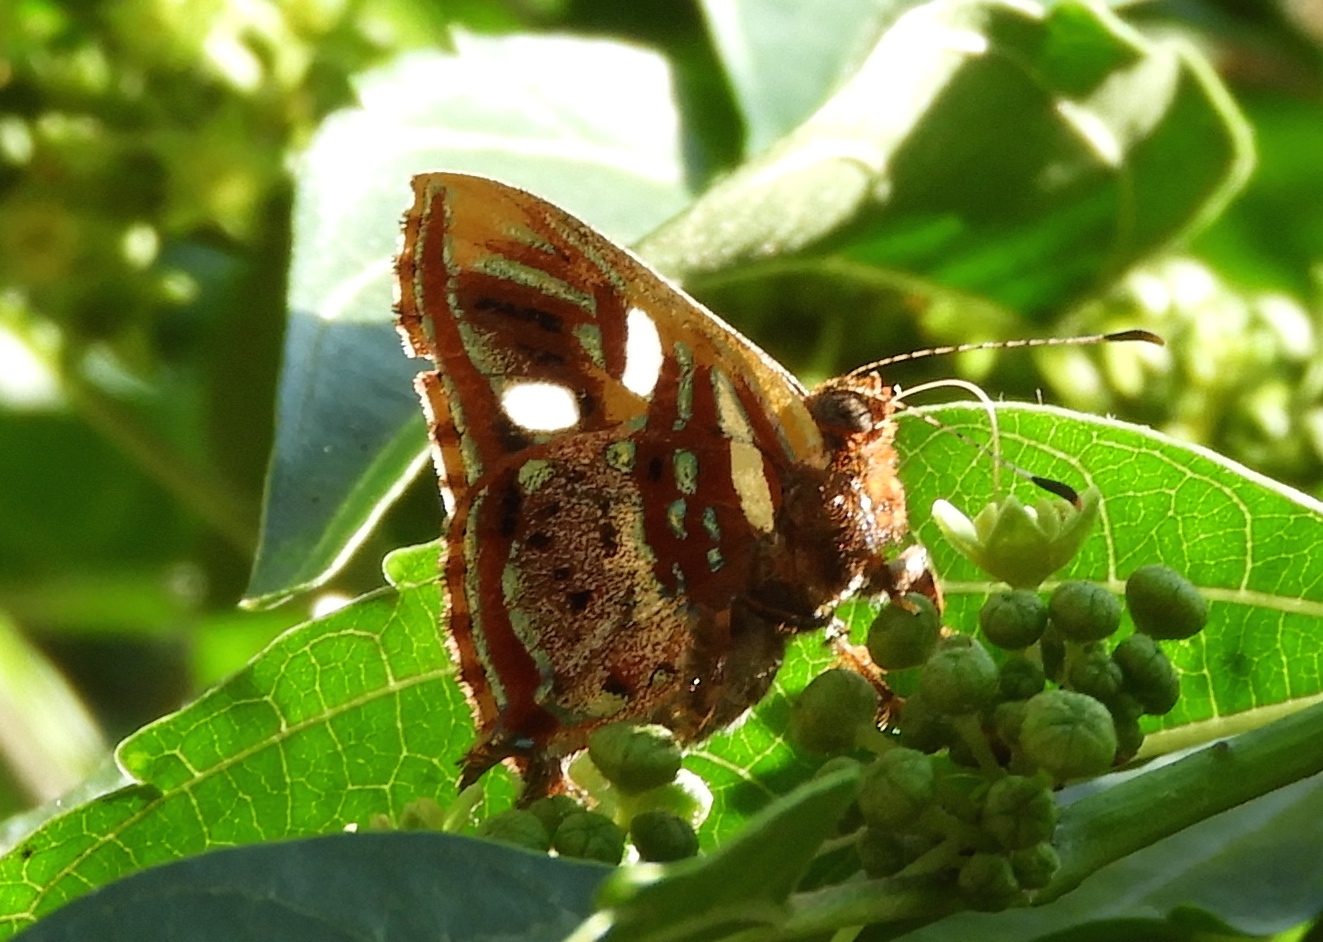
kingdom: Animalia
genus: Anteros
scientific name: Anteros carausius
